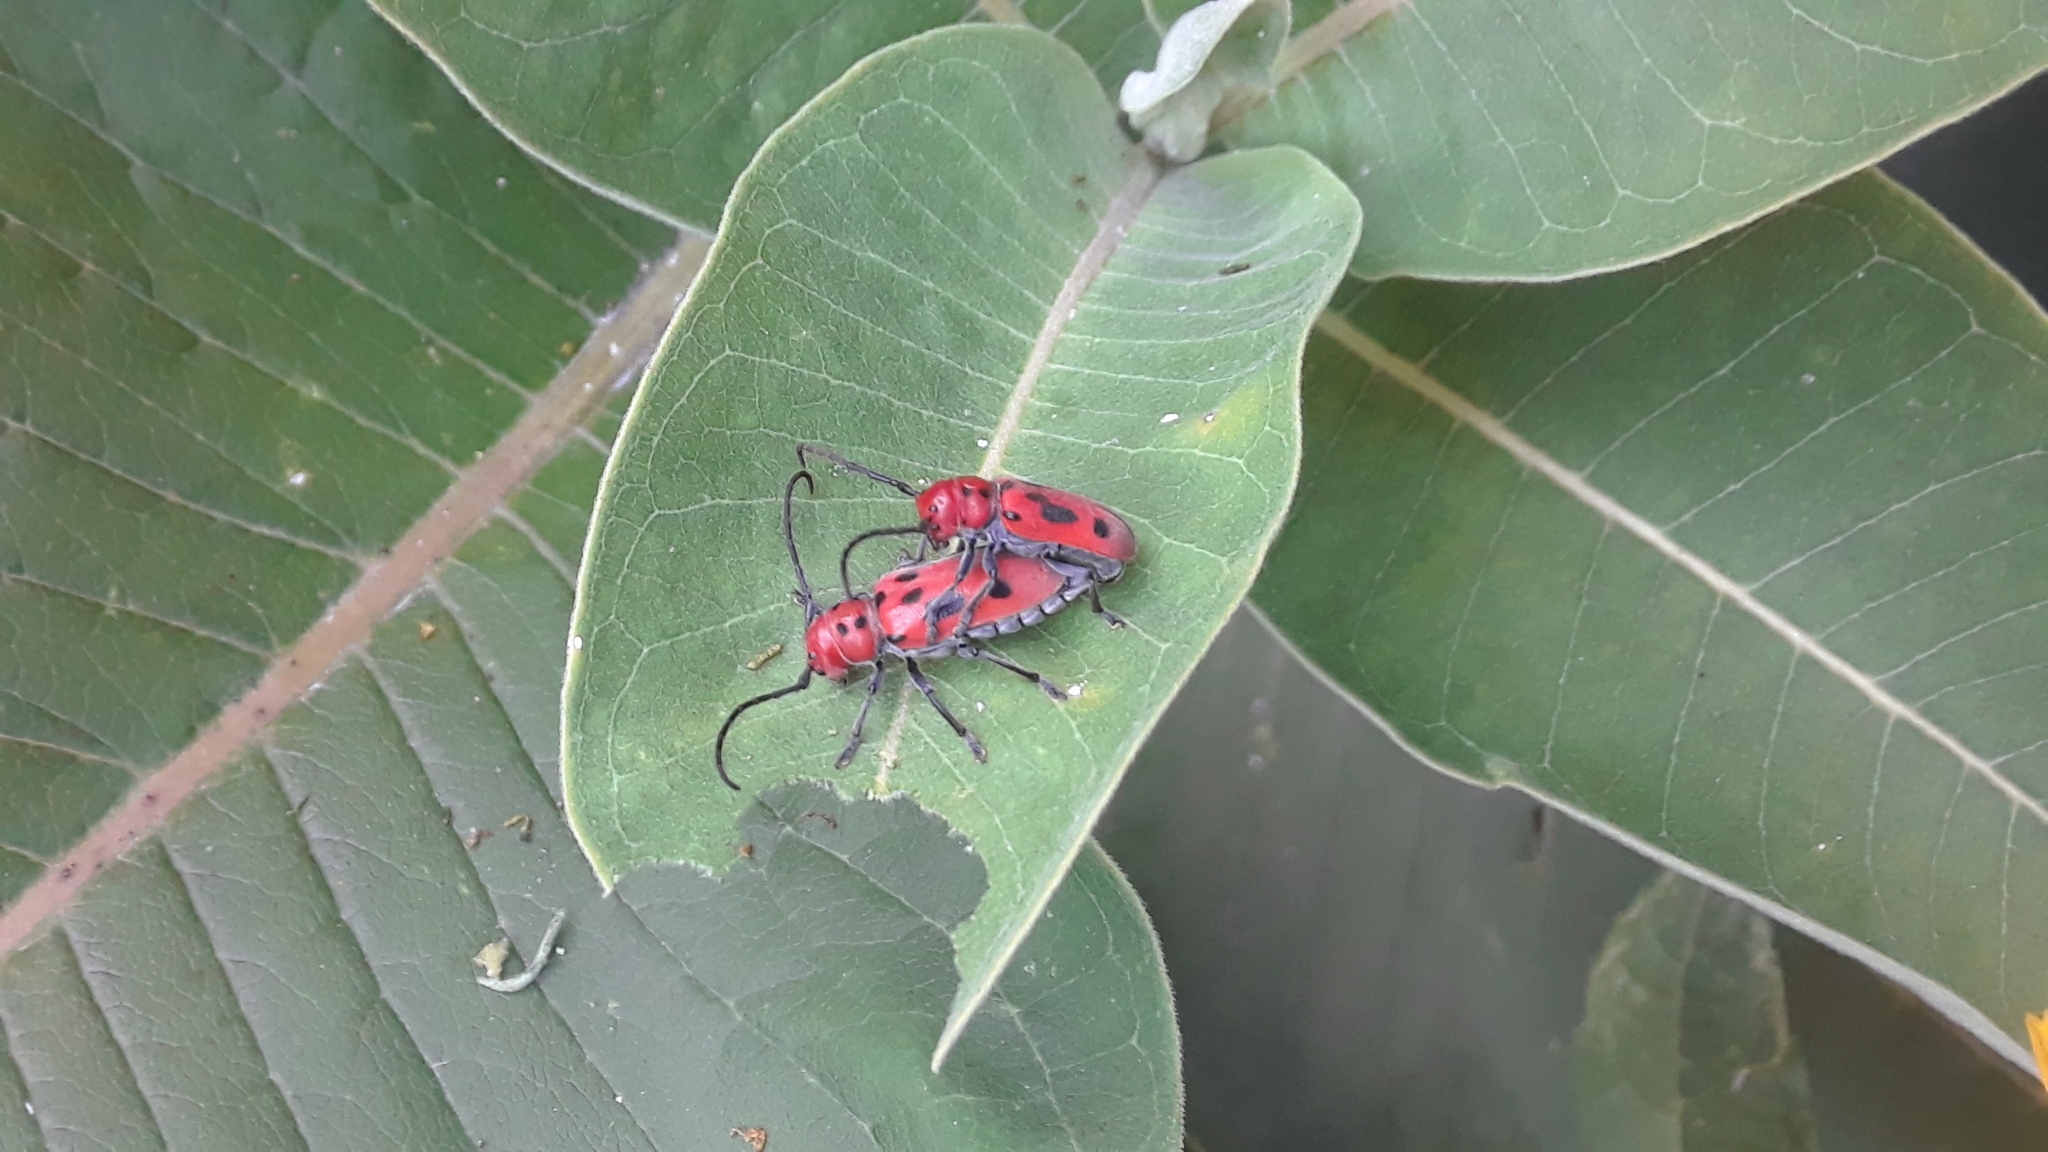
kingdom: Animalia
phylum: Arthropoda
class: Insecta
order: Coleoptera
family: Cerambycidae
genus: Tetraopes
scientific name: Tetraopes tetrophthalmus
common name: Red milkweed beetle
